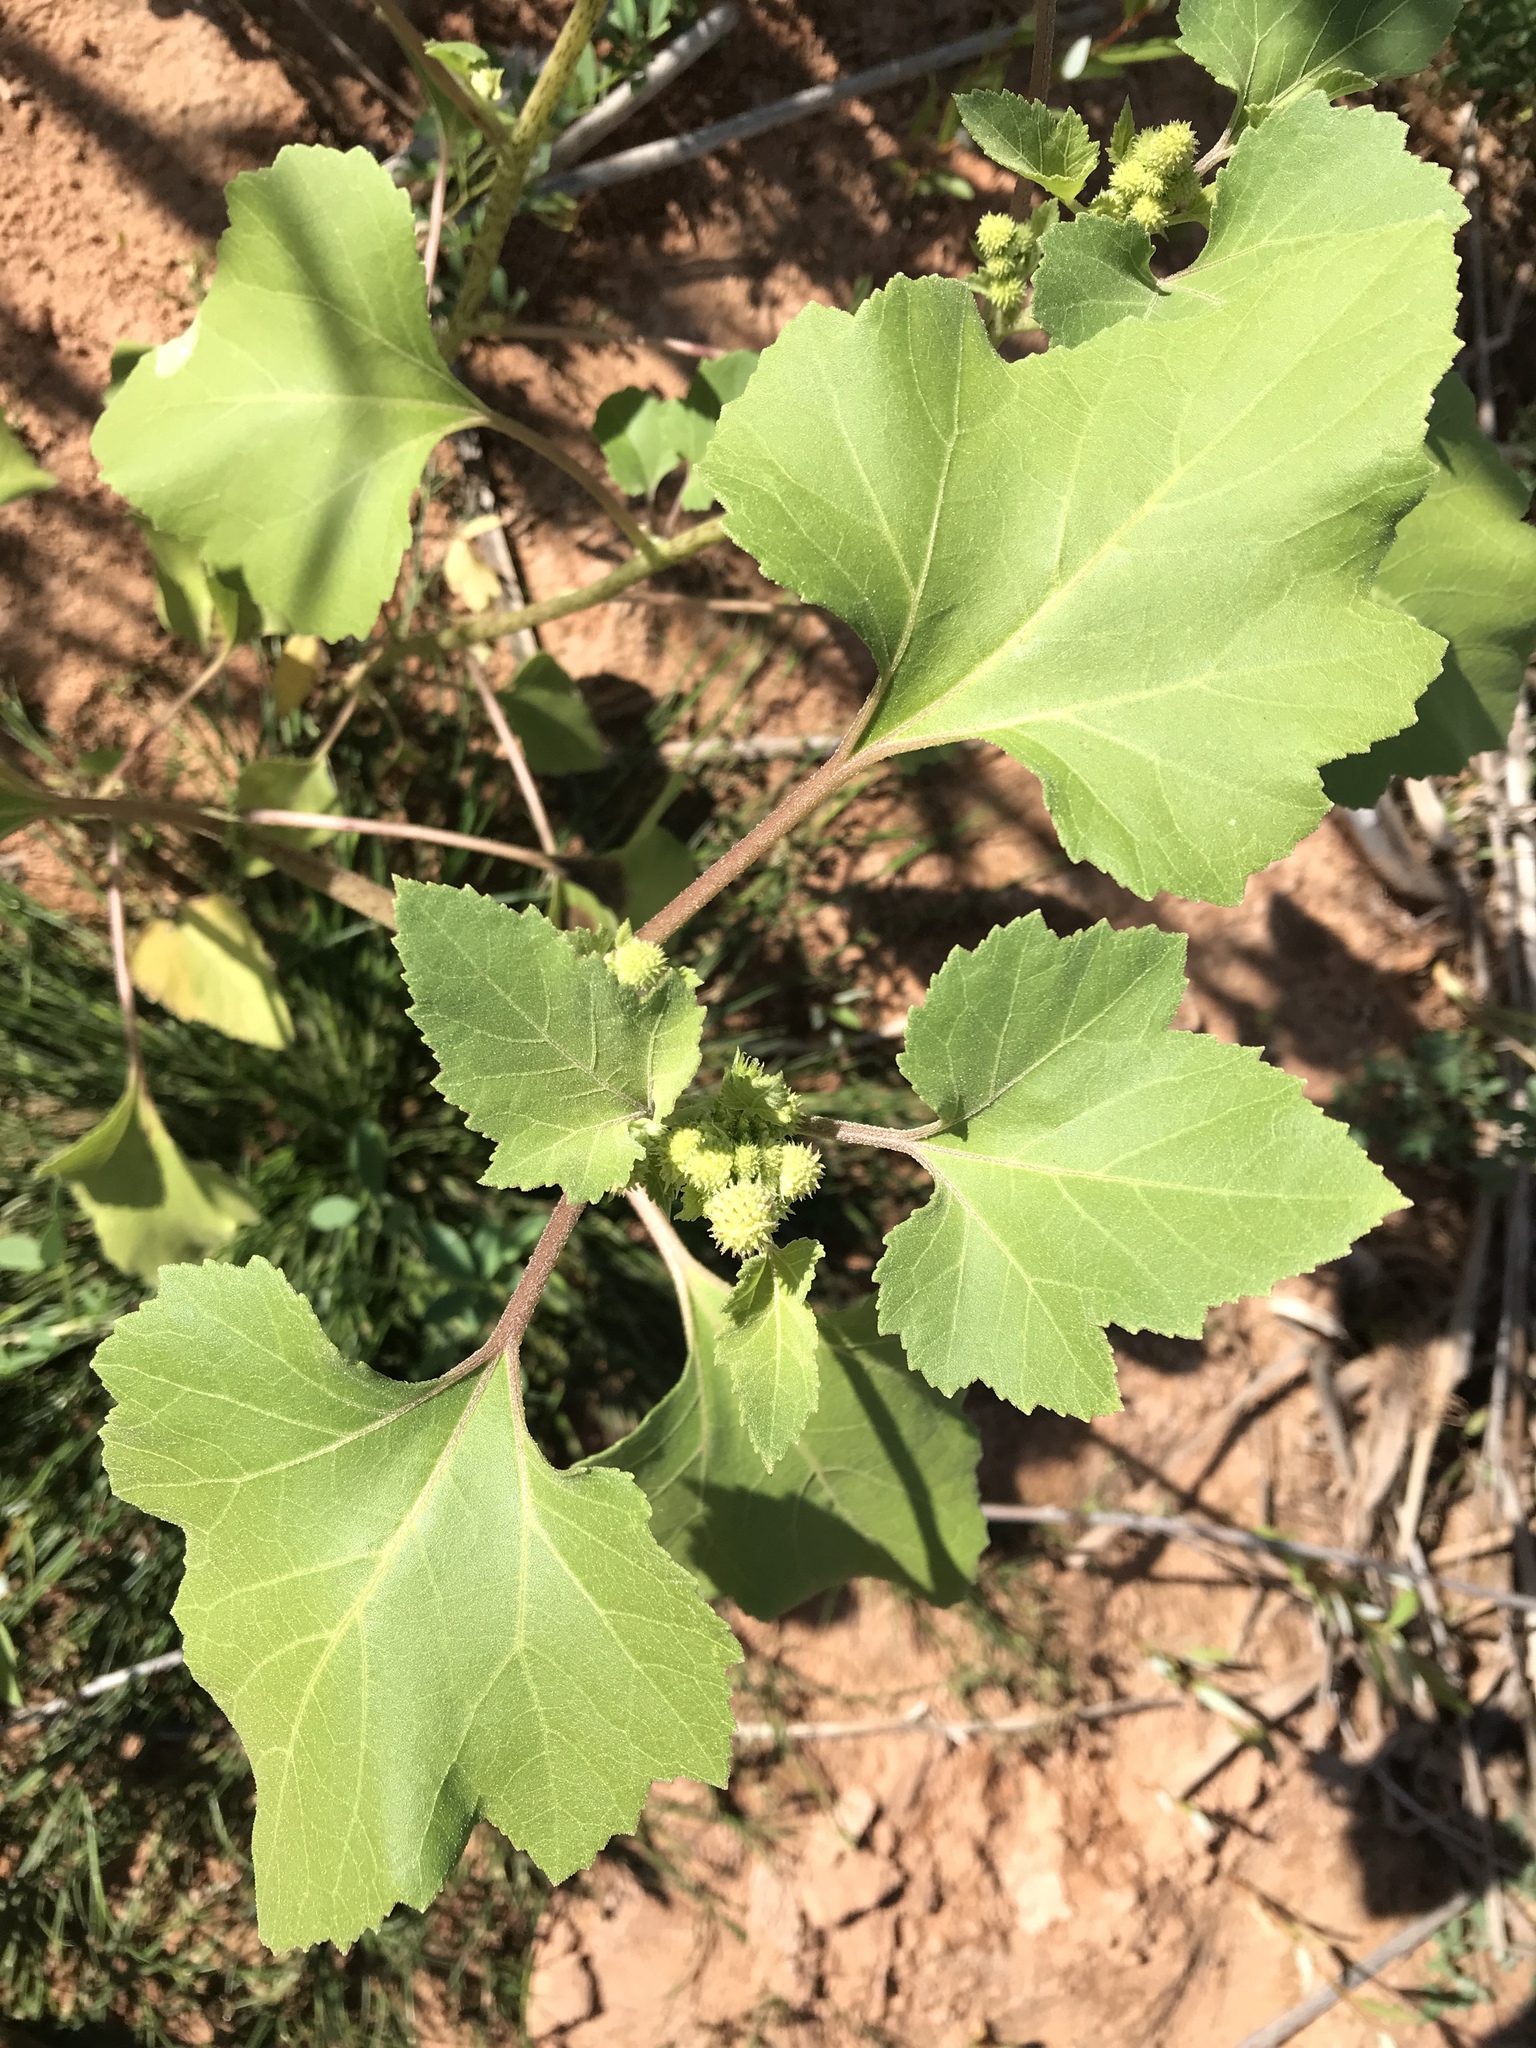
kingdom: Plantae
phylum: Tracheophyta
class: Magnoliopsida
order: Asterales
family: Asteraceae
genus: Xanthium
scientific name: Xanthium strumarium
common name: Rough cocklebur
